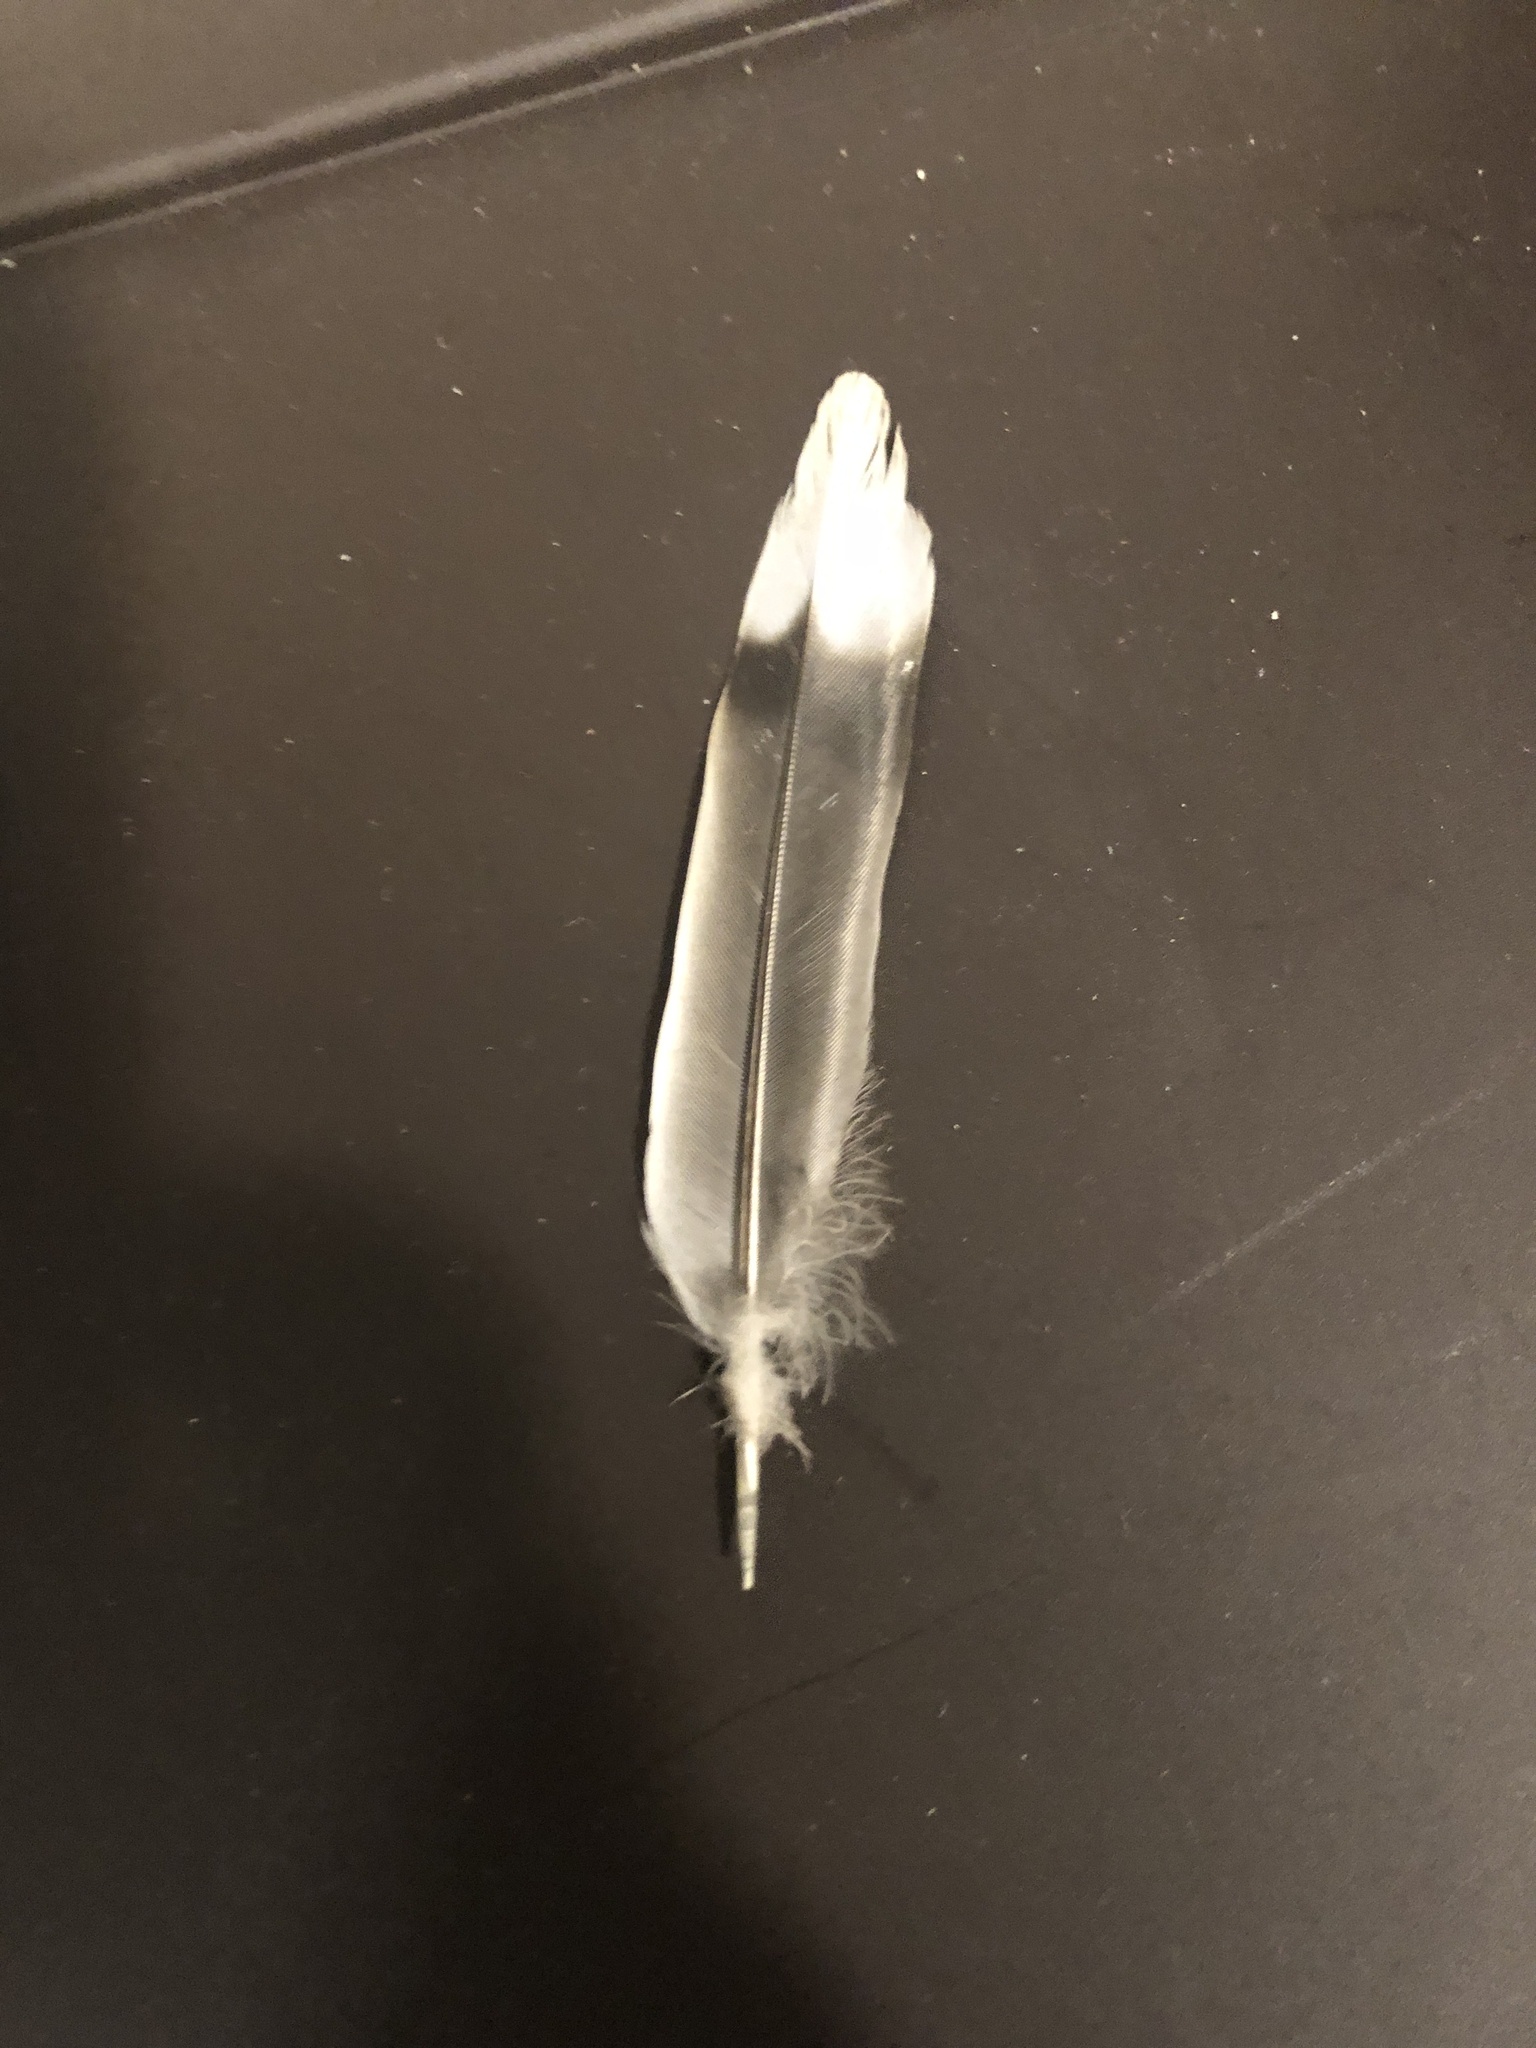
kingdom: Animalia
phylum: Chordata
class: Aves
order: Columbiformes
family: Columbidae
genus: Zenaida
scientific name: Zenaida macroura
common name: Mourning dove
